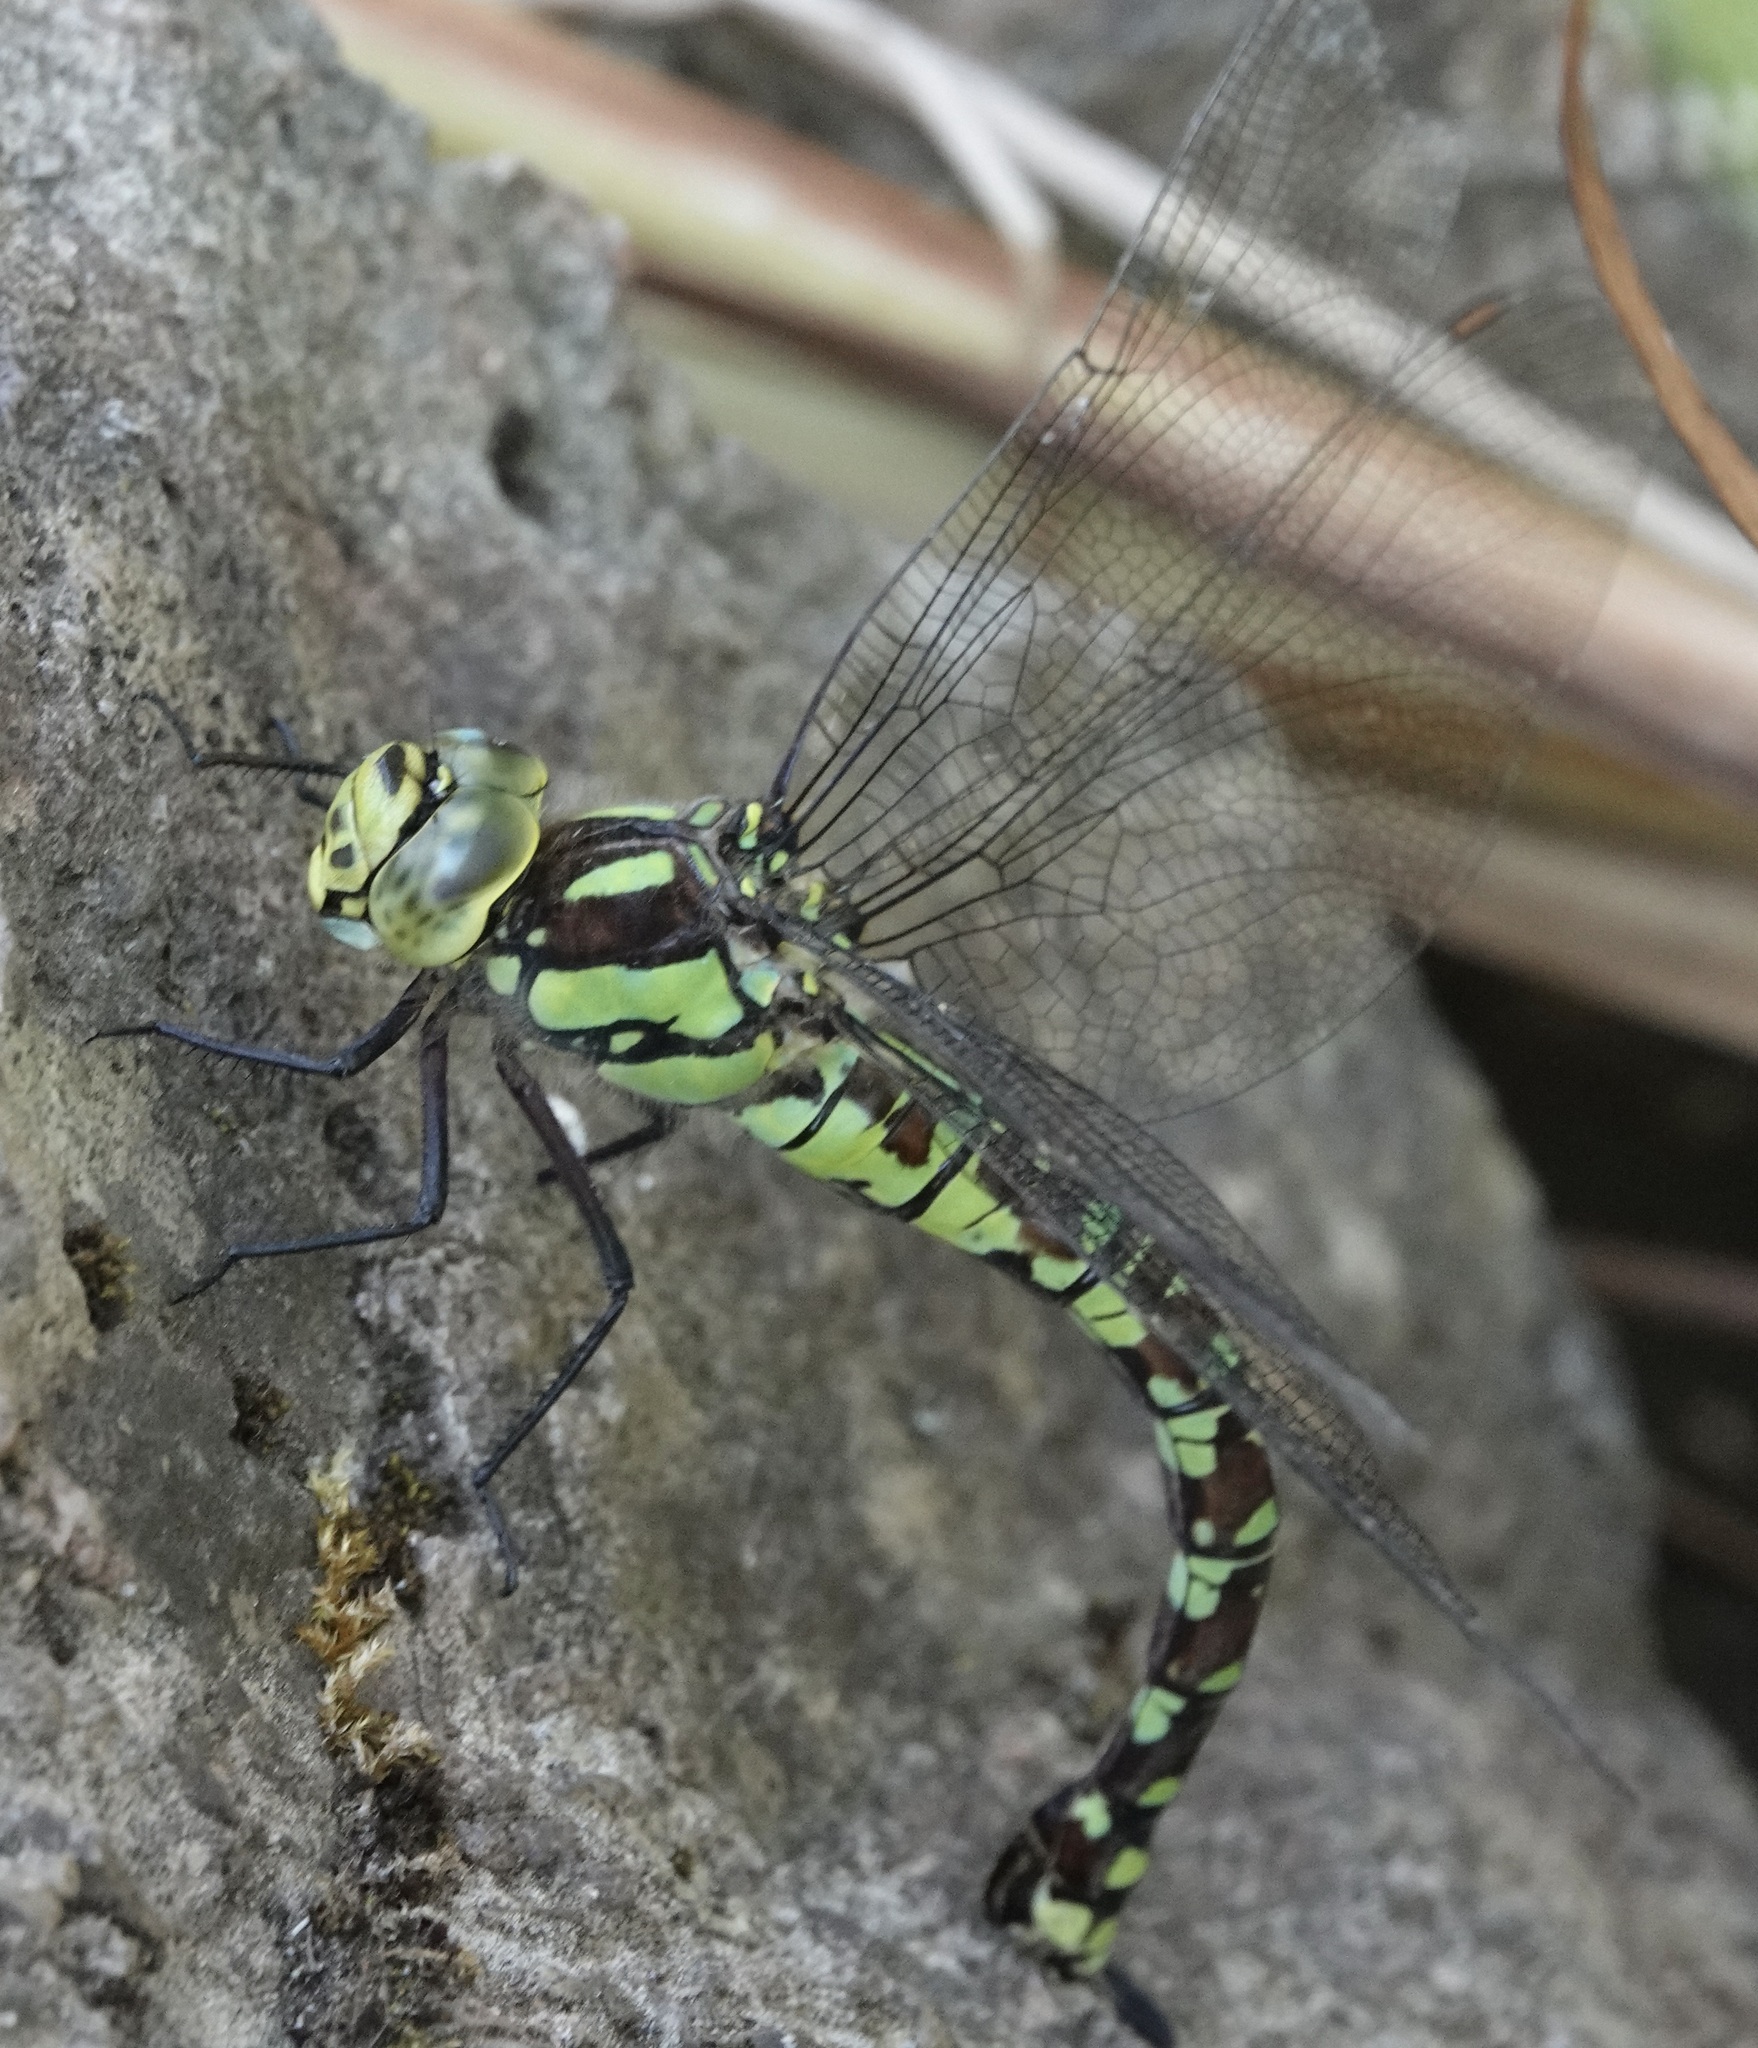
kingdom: Animalia
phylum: Arthropoda
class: Insecta
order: Odonata
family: Aeshnidae
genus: Aeshna
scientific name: Aeshna cyanea
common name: Southern hawker
